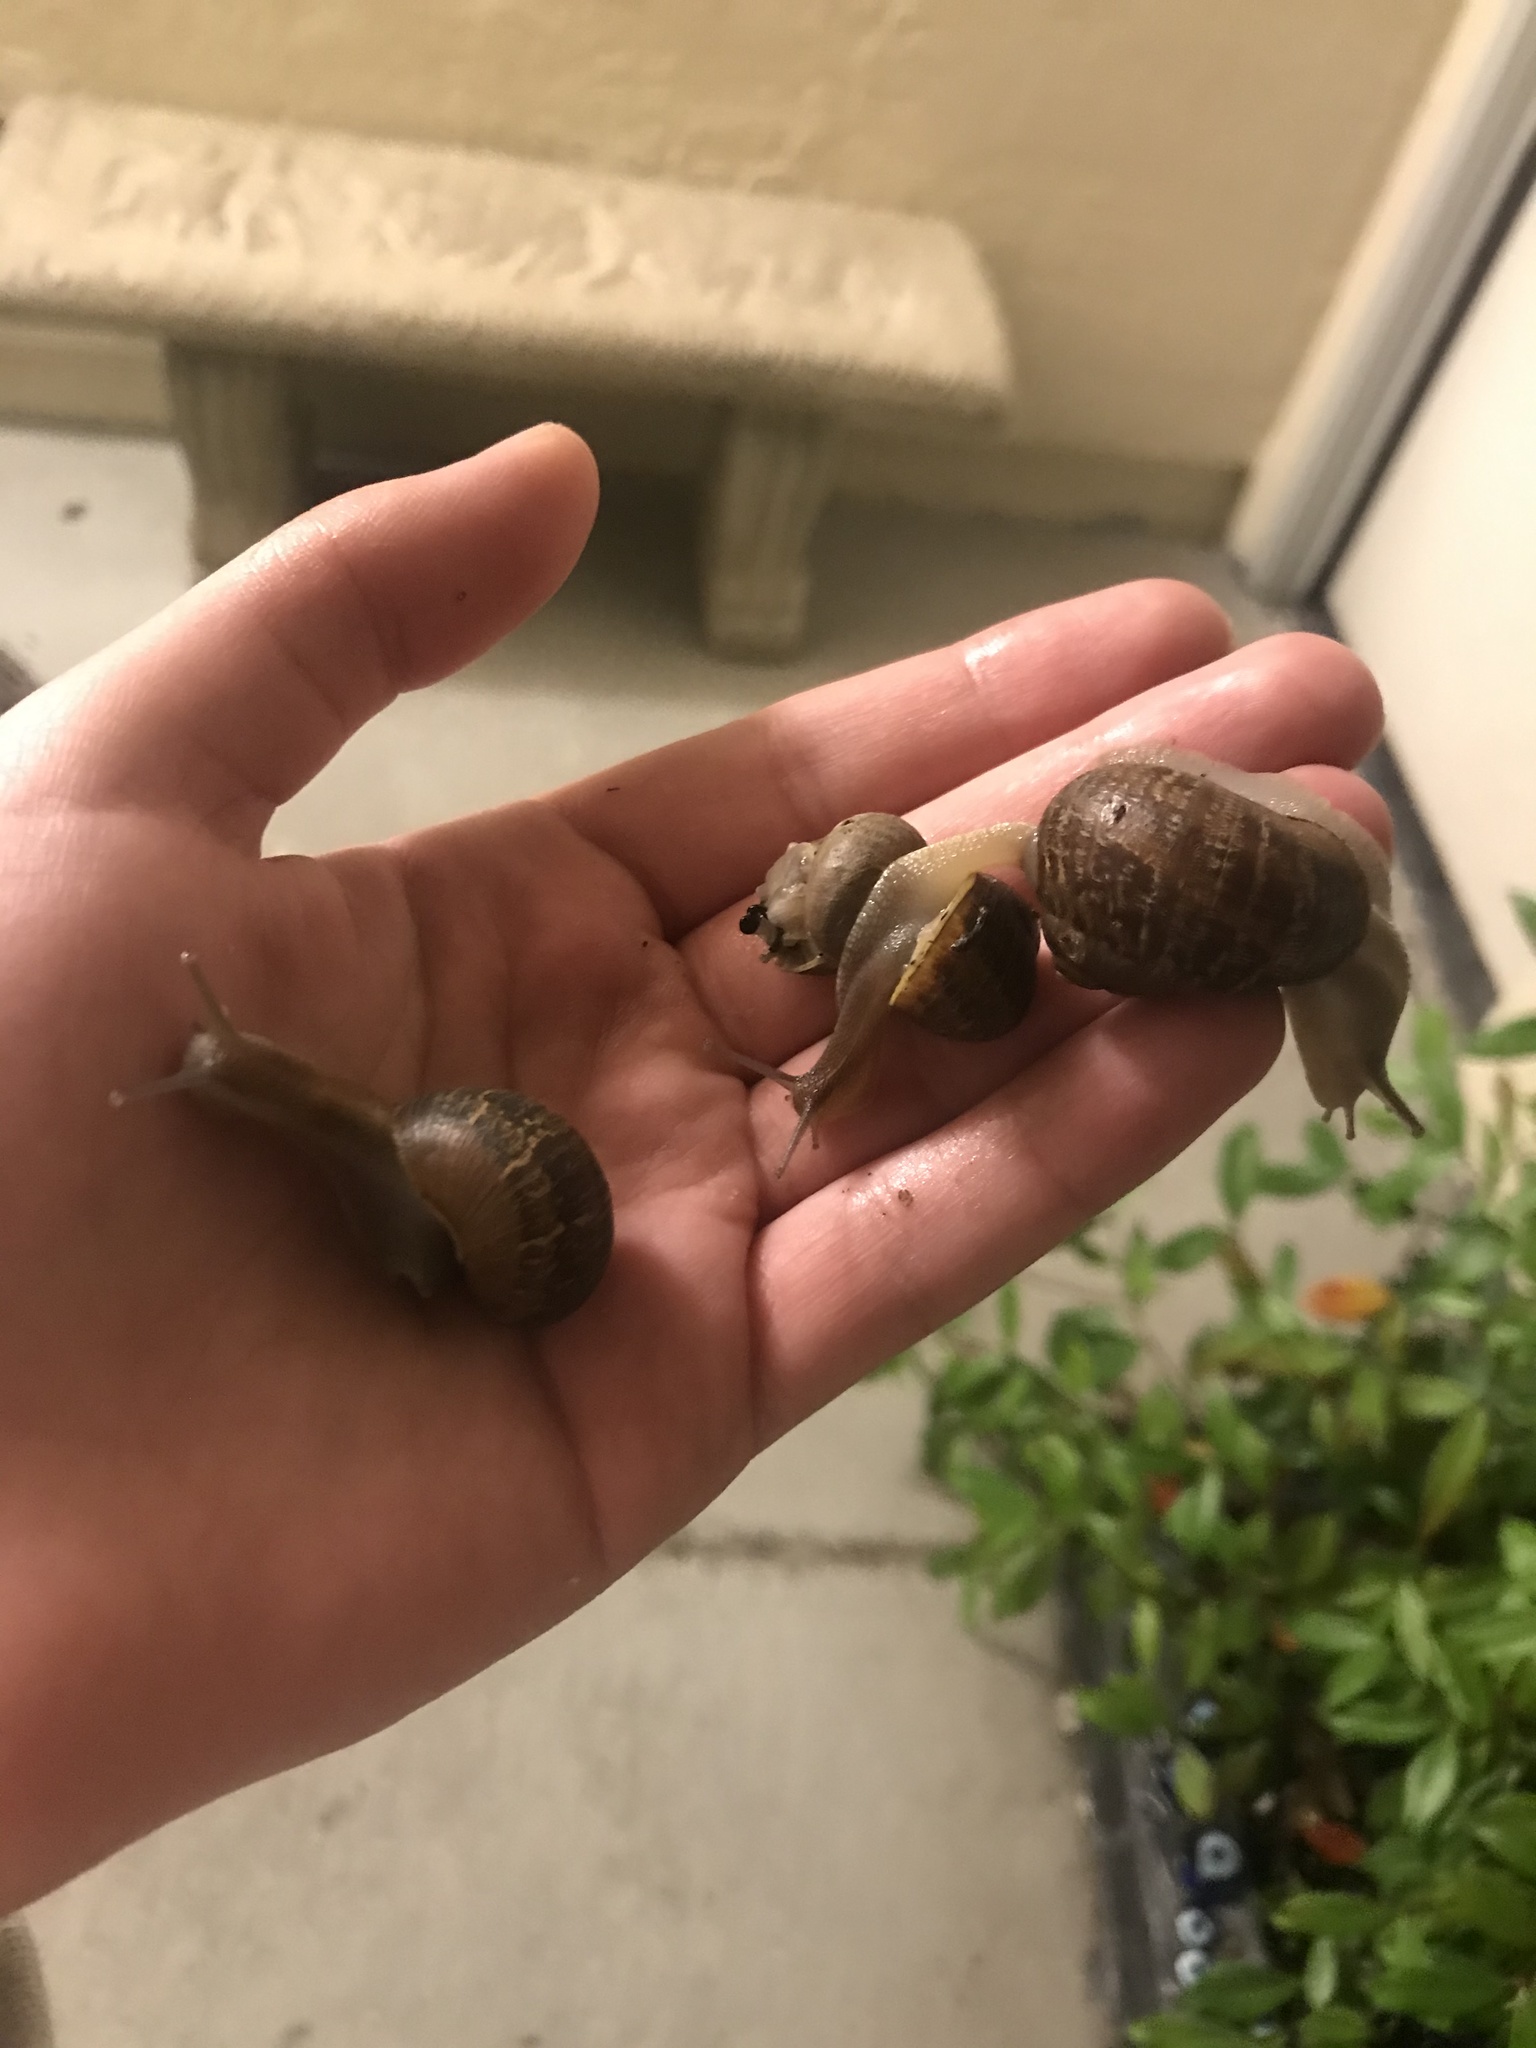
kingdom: Animalia
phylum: Mollusca
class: Gastropoda
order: Stylommatophora
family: Helicidae
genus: Cornu
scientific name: Cornu aspersum
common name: Brown garden snail
